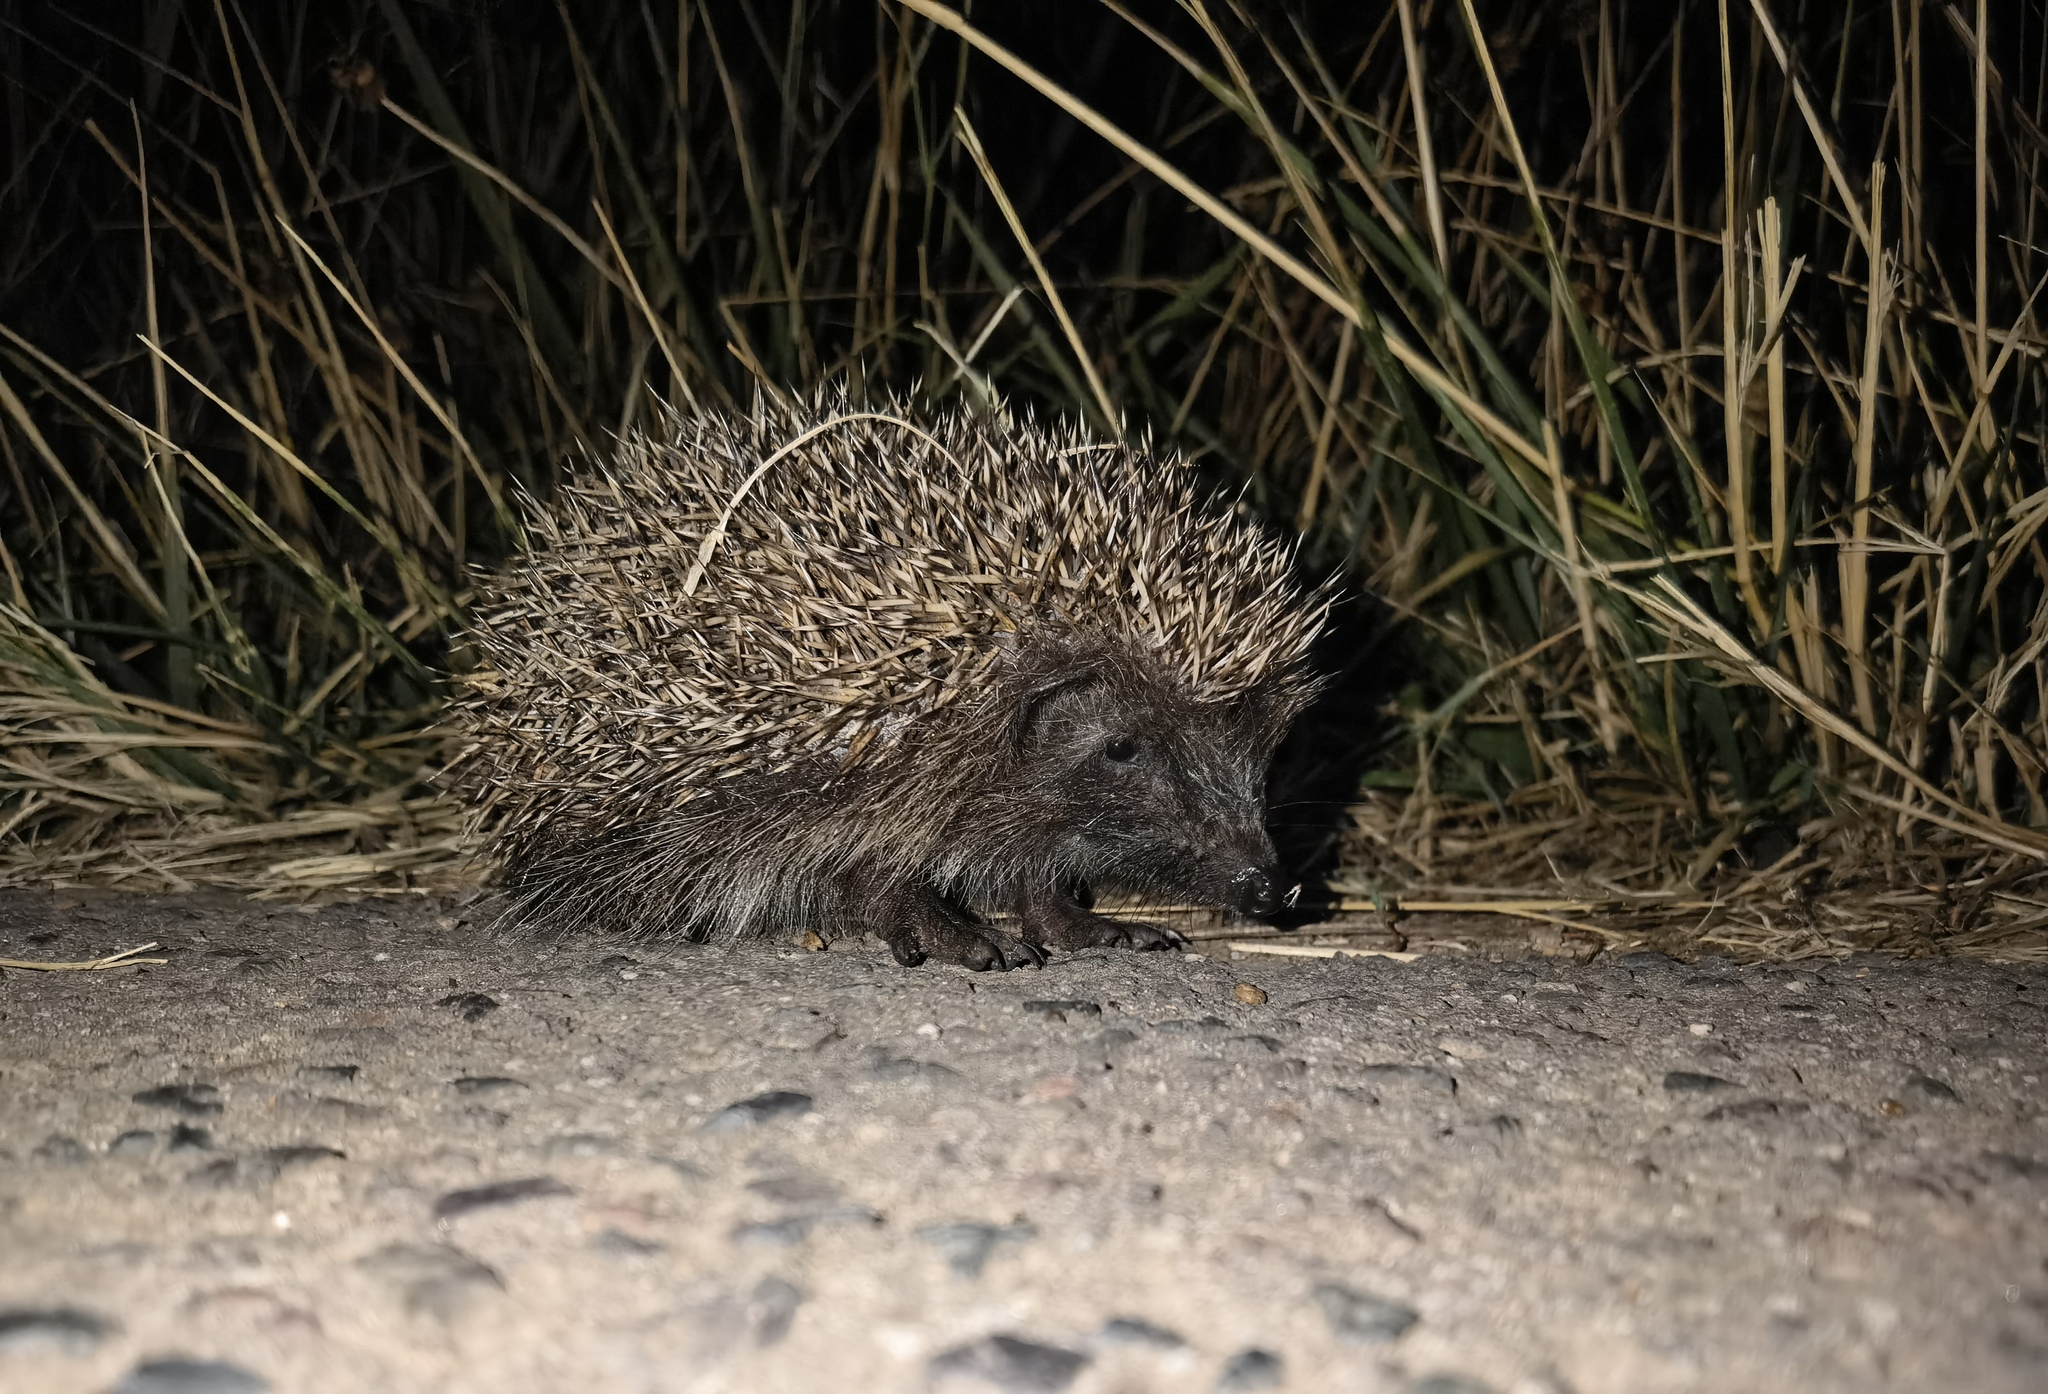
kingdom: Animalia
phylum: Chordata
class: Mammalia
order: Erinaceomorpha
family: Erinaceidae
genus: Erinaceus
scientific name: Erinaceus europaeus
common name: West european hedgehog
